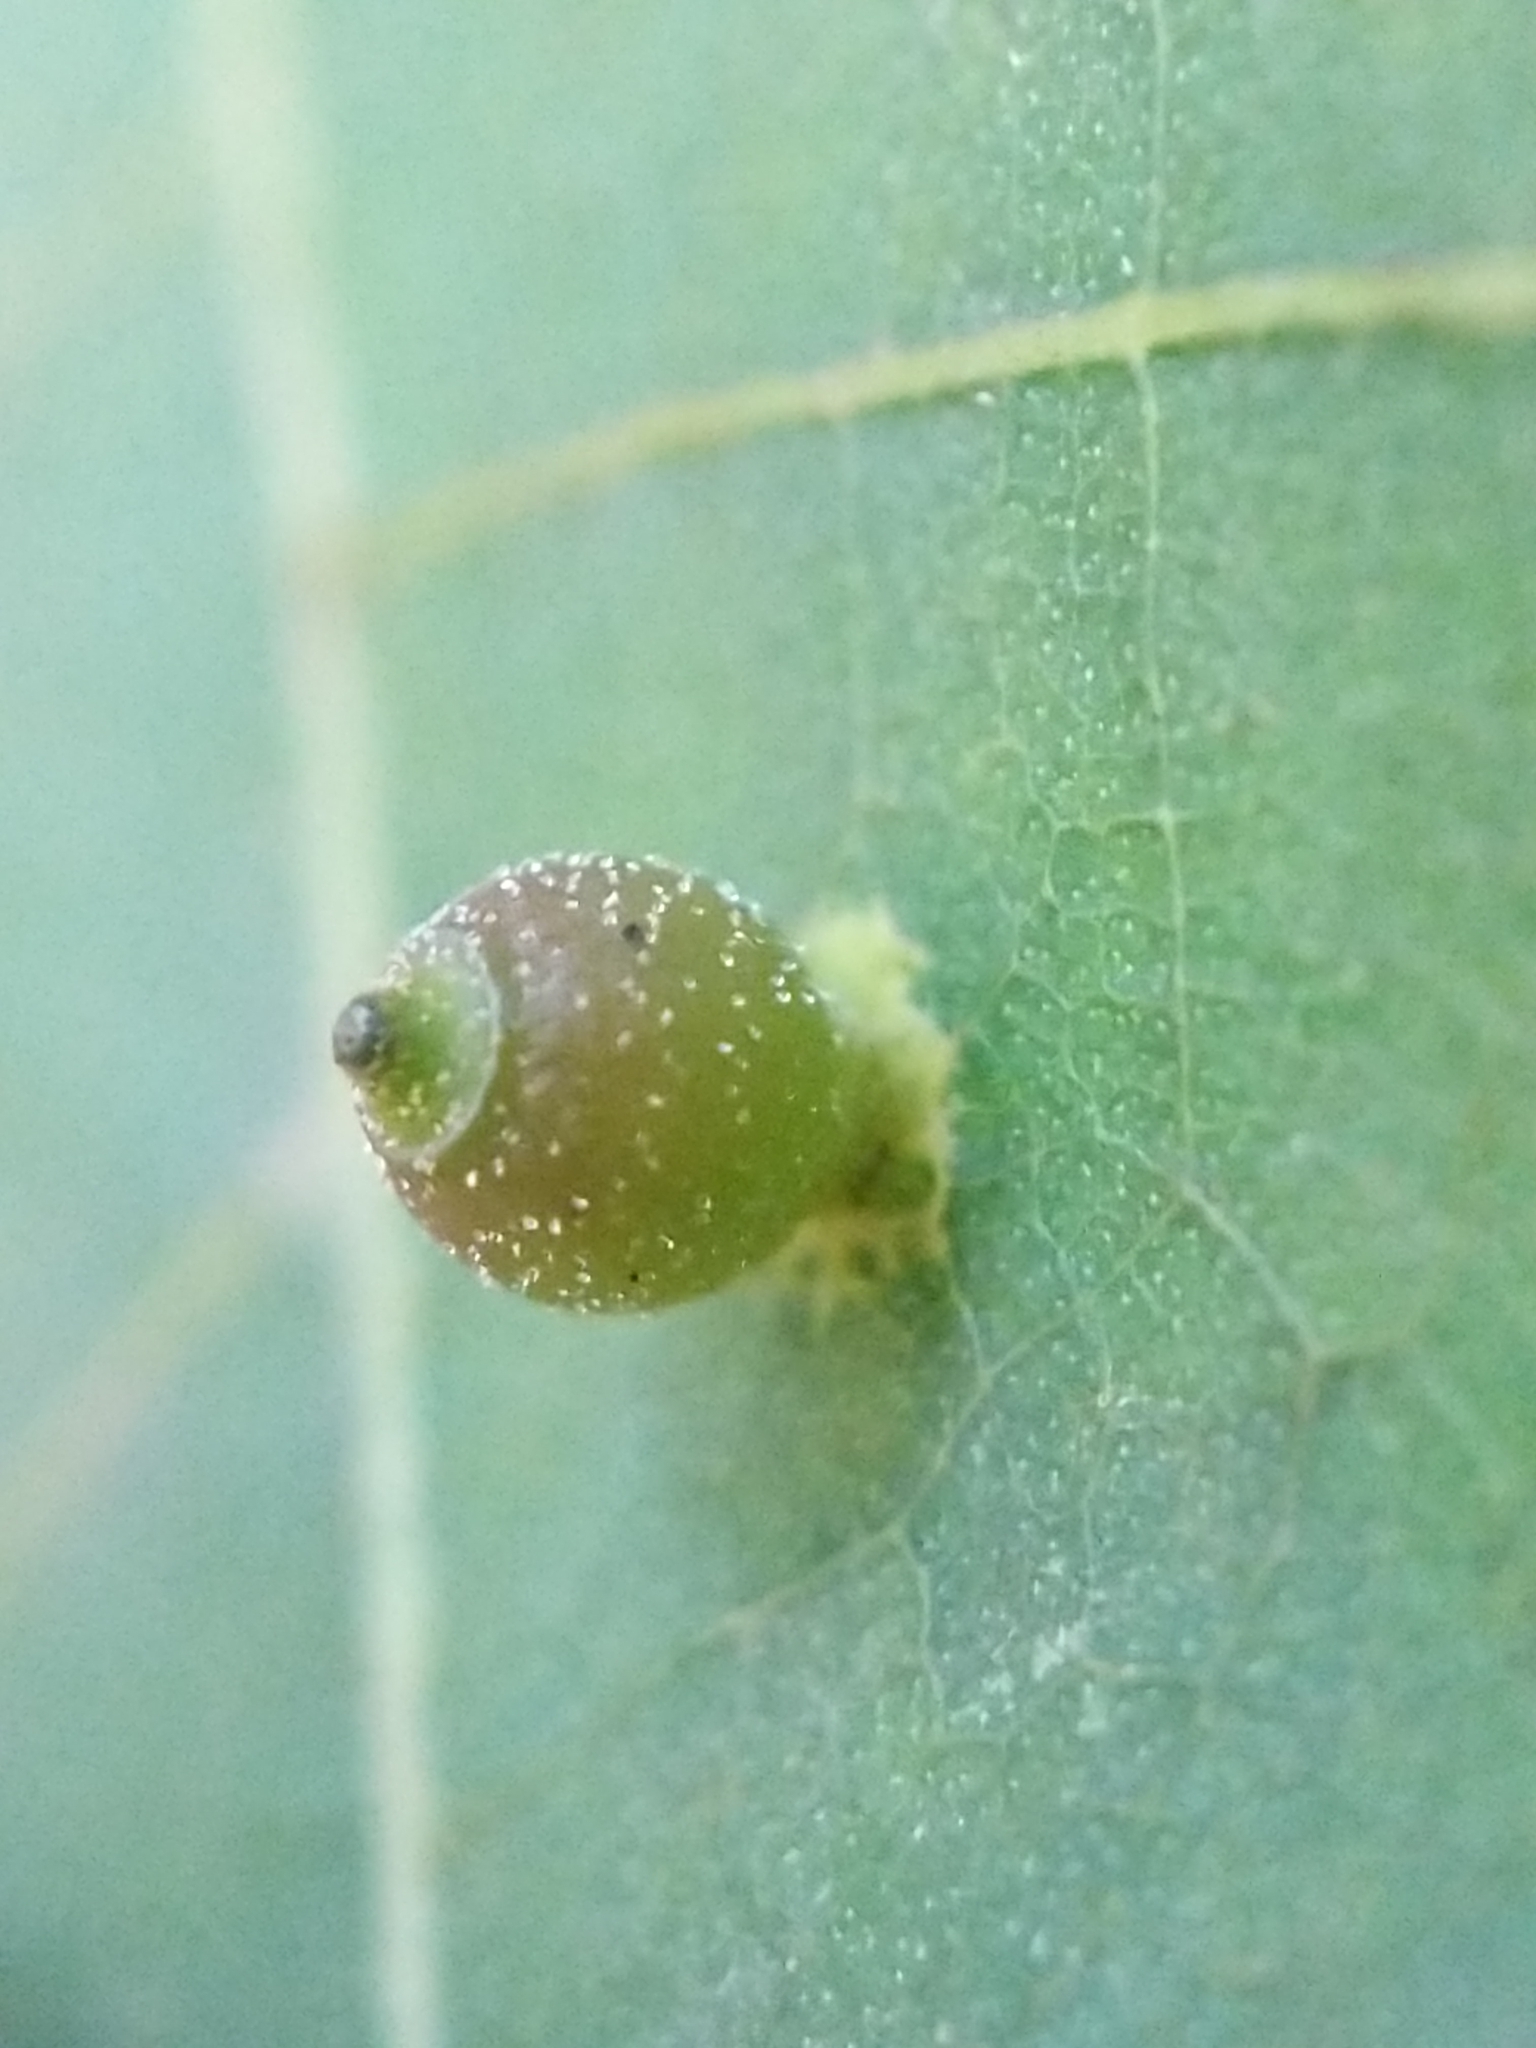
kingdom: Animalia
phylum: Arthropoda
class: Insecta
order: Diptera
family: Cecidomyiidae
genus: Caryomyia
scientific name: Caryomyia viscidolium
